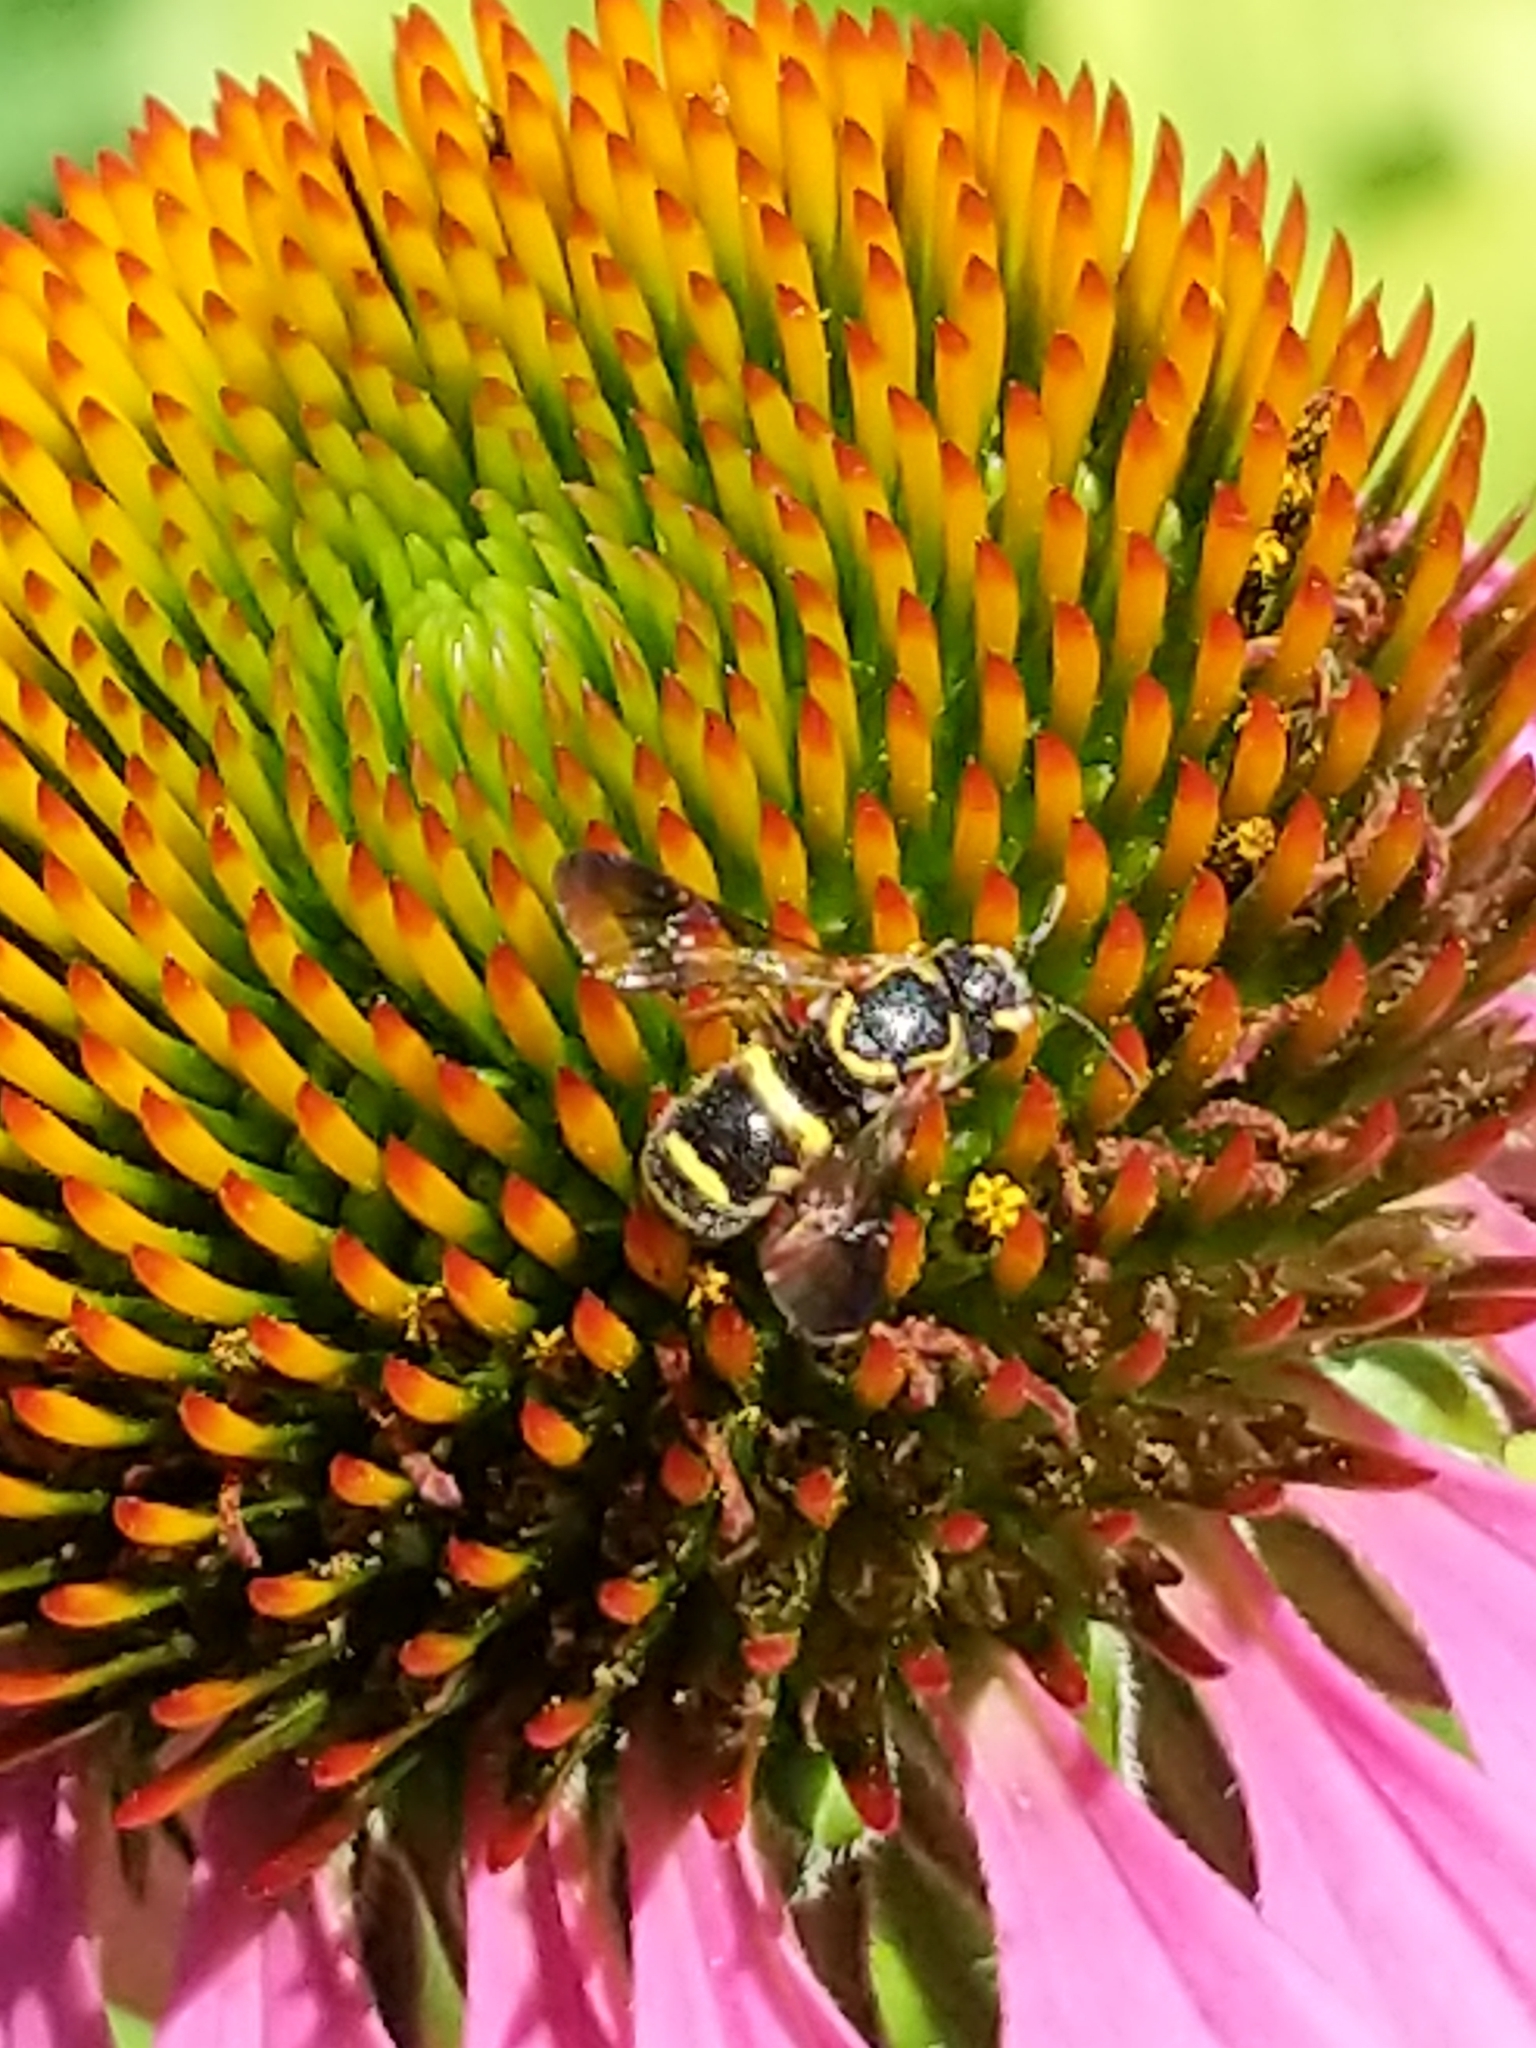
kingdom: Animalia
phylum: Arthropoda
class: Insecta
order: Hymenoptera
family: Megachilidae
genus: Stelis
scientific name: Stelis louisae
